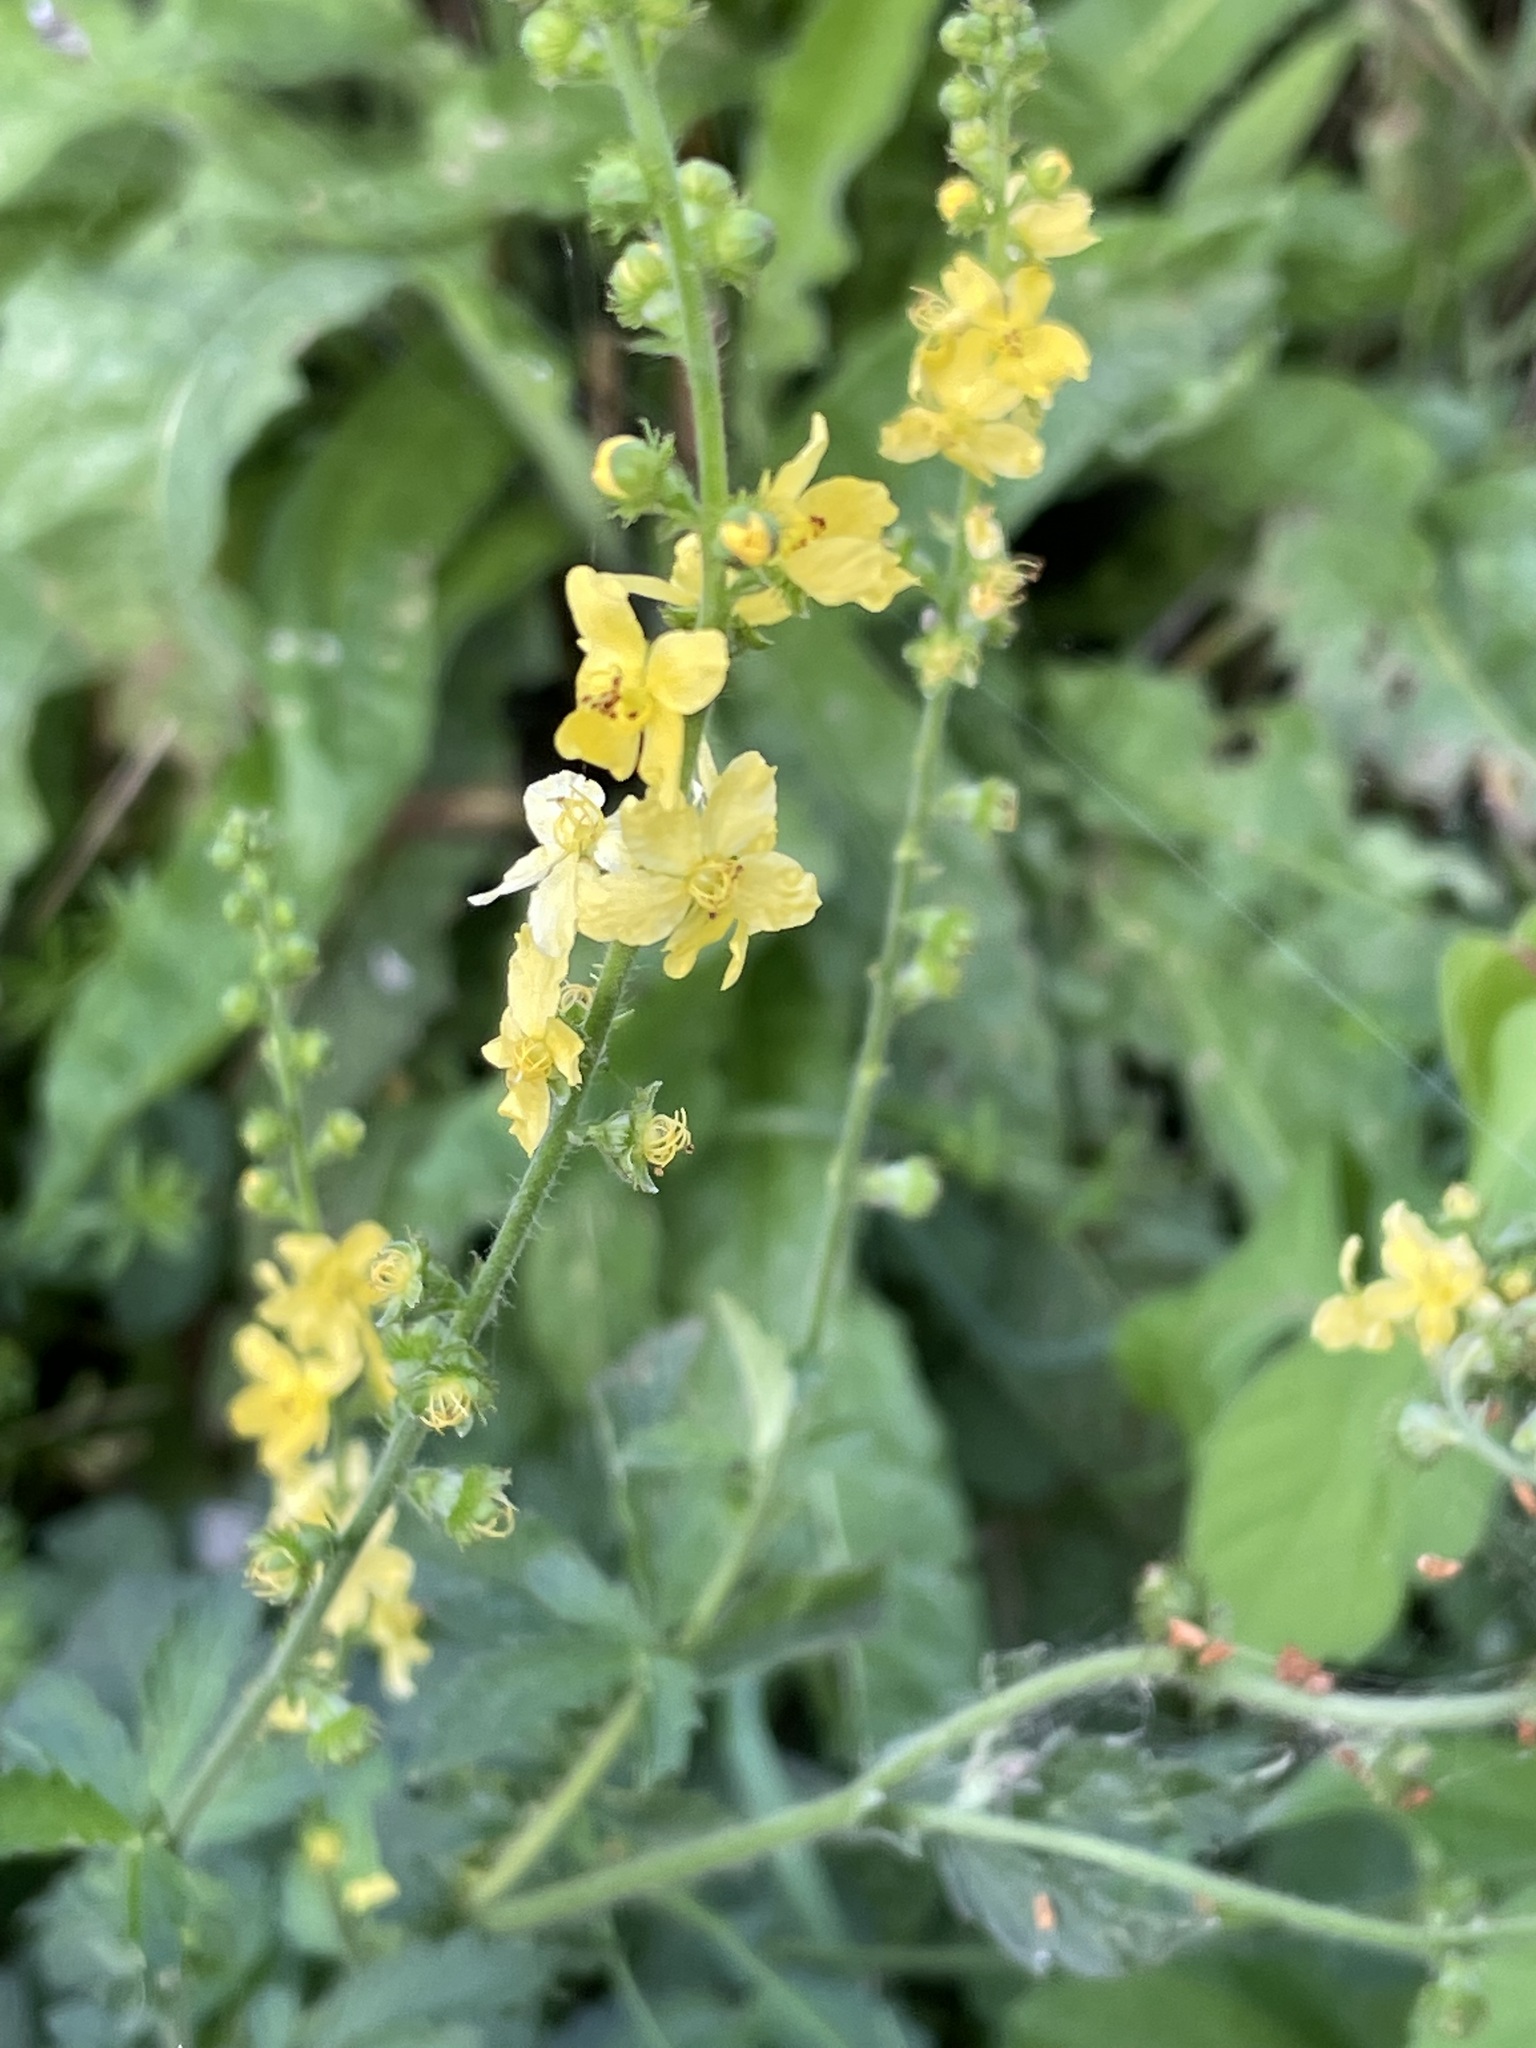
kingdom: Plantae
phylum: Tracheophyta
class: Magnoliopsida
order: Rosales
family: Rosaceae
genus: Agrimonia
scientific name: Agrimonia eupatoria
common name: Agrimony
